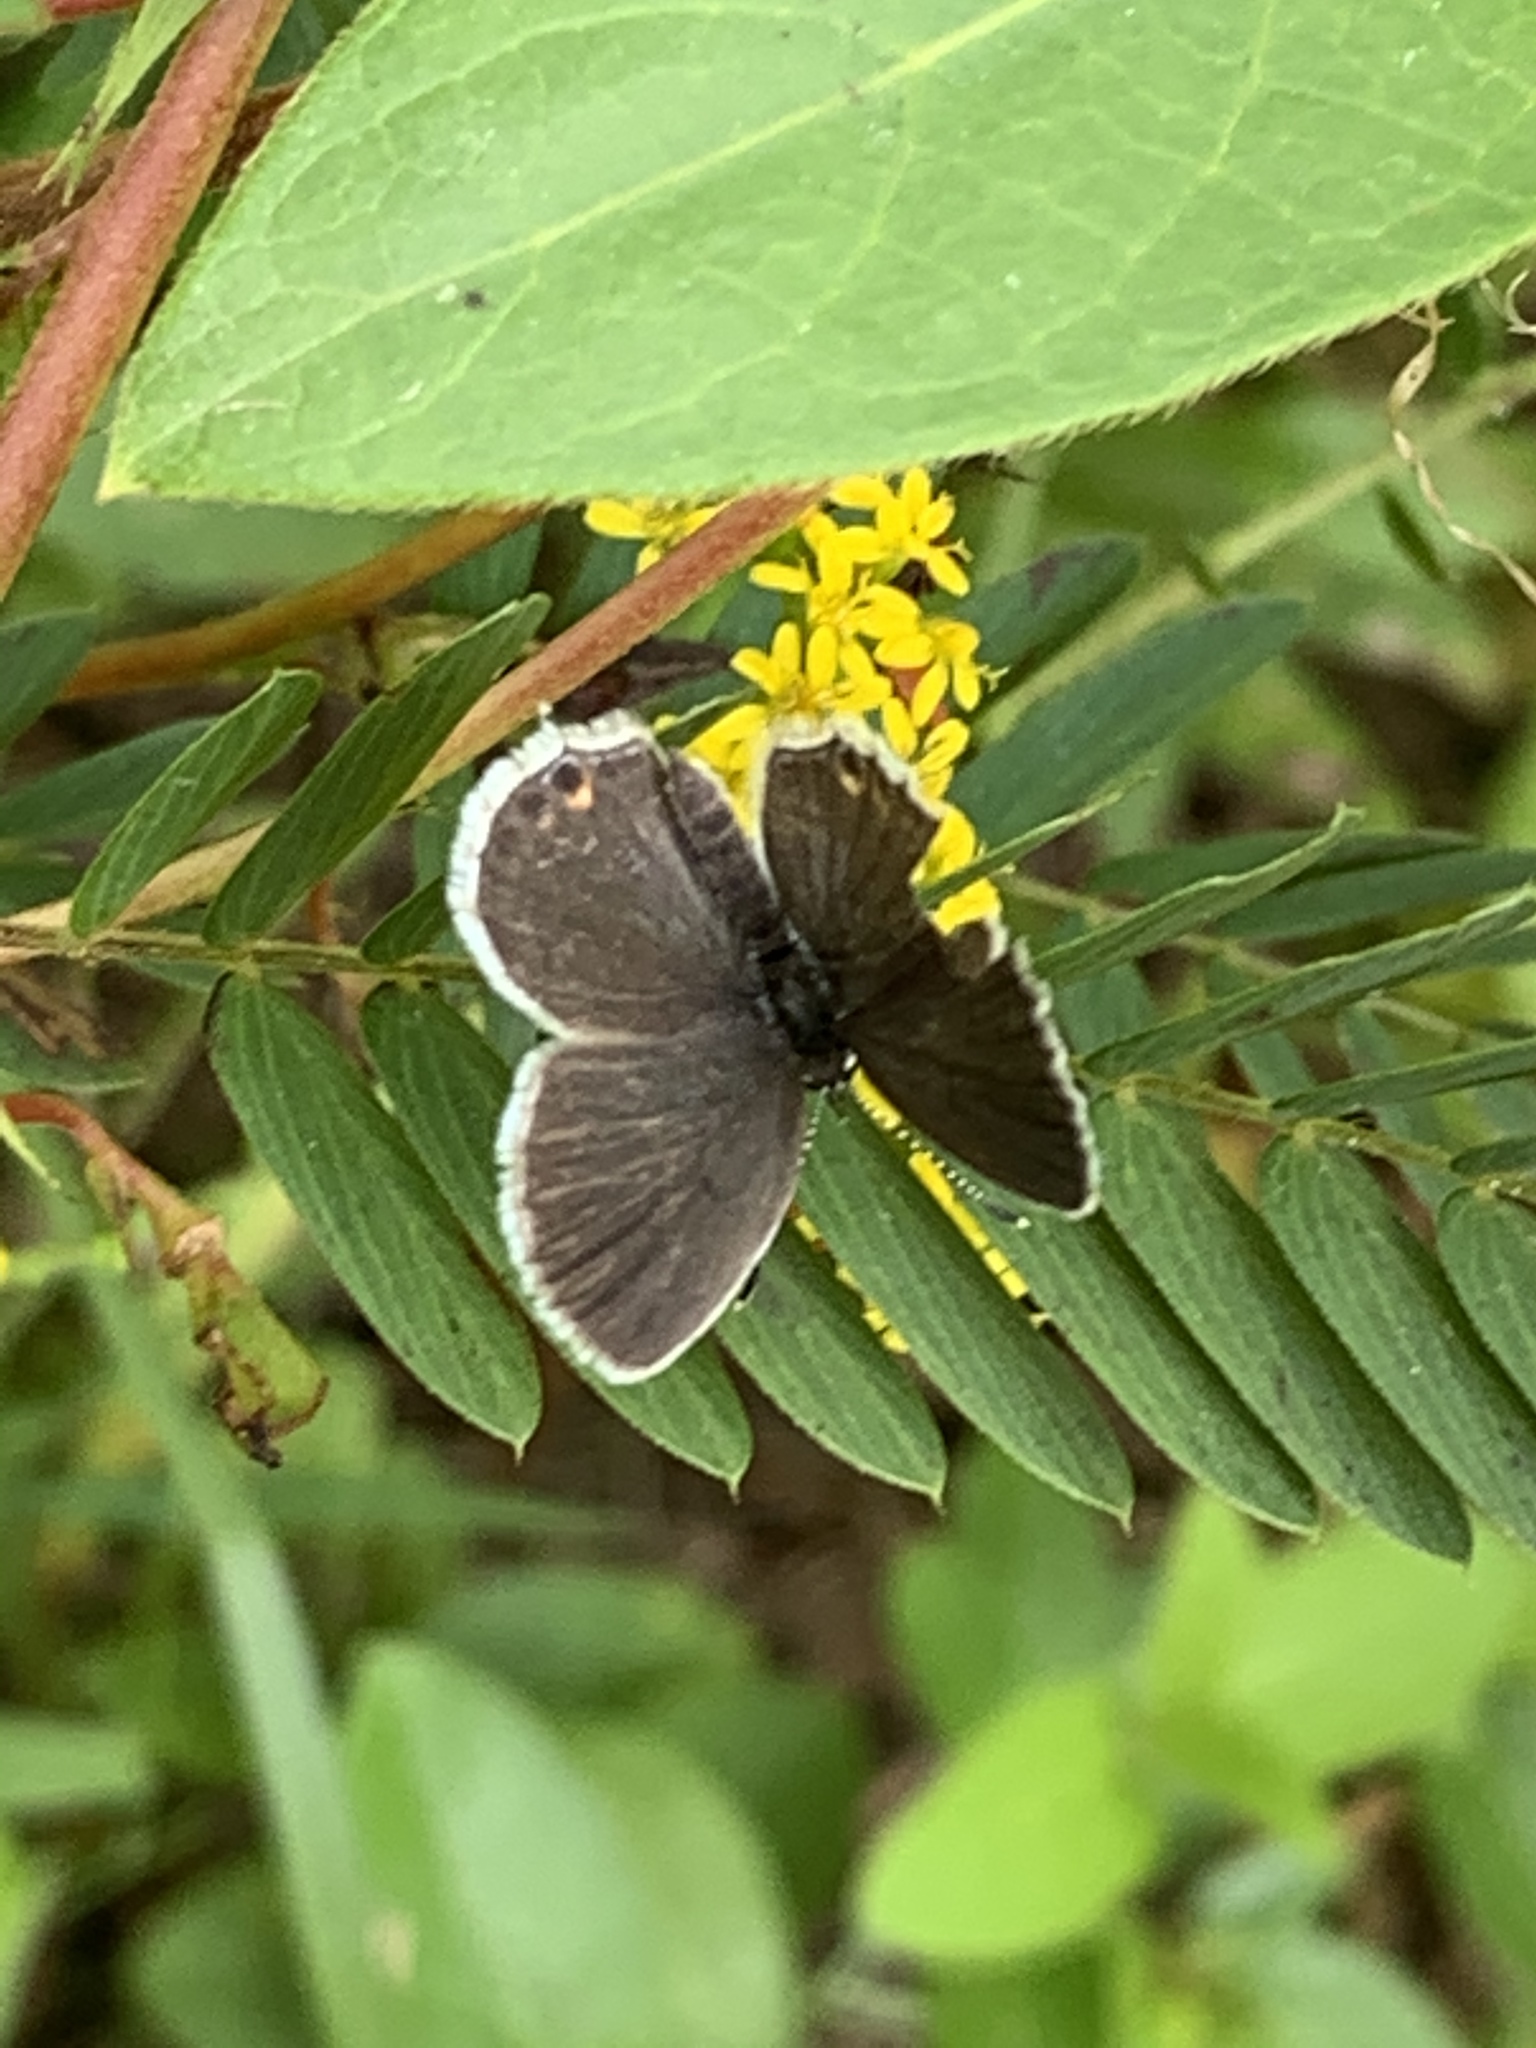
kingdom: Animalia
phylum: Arthropoda
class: Insecta
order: Lepidoptera
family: Lycaenidae
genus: Elkalyce
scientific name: Elkalyce comyntas
